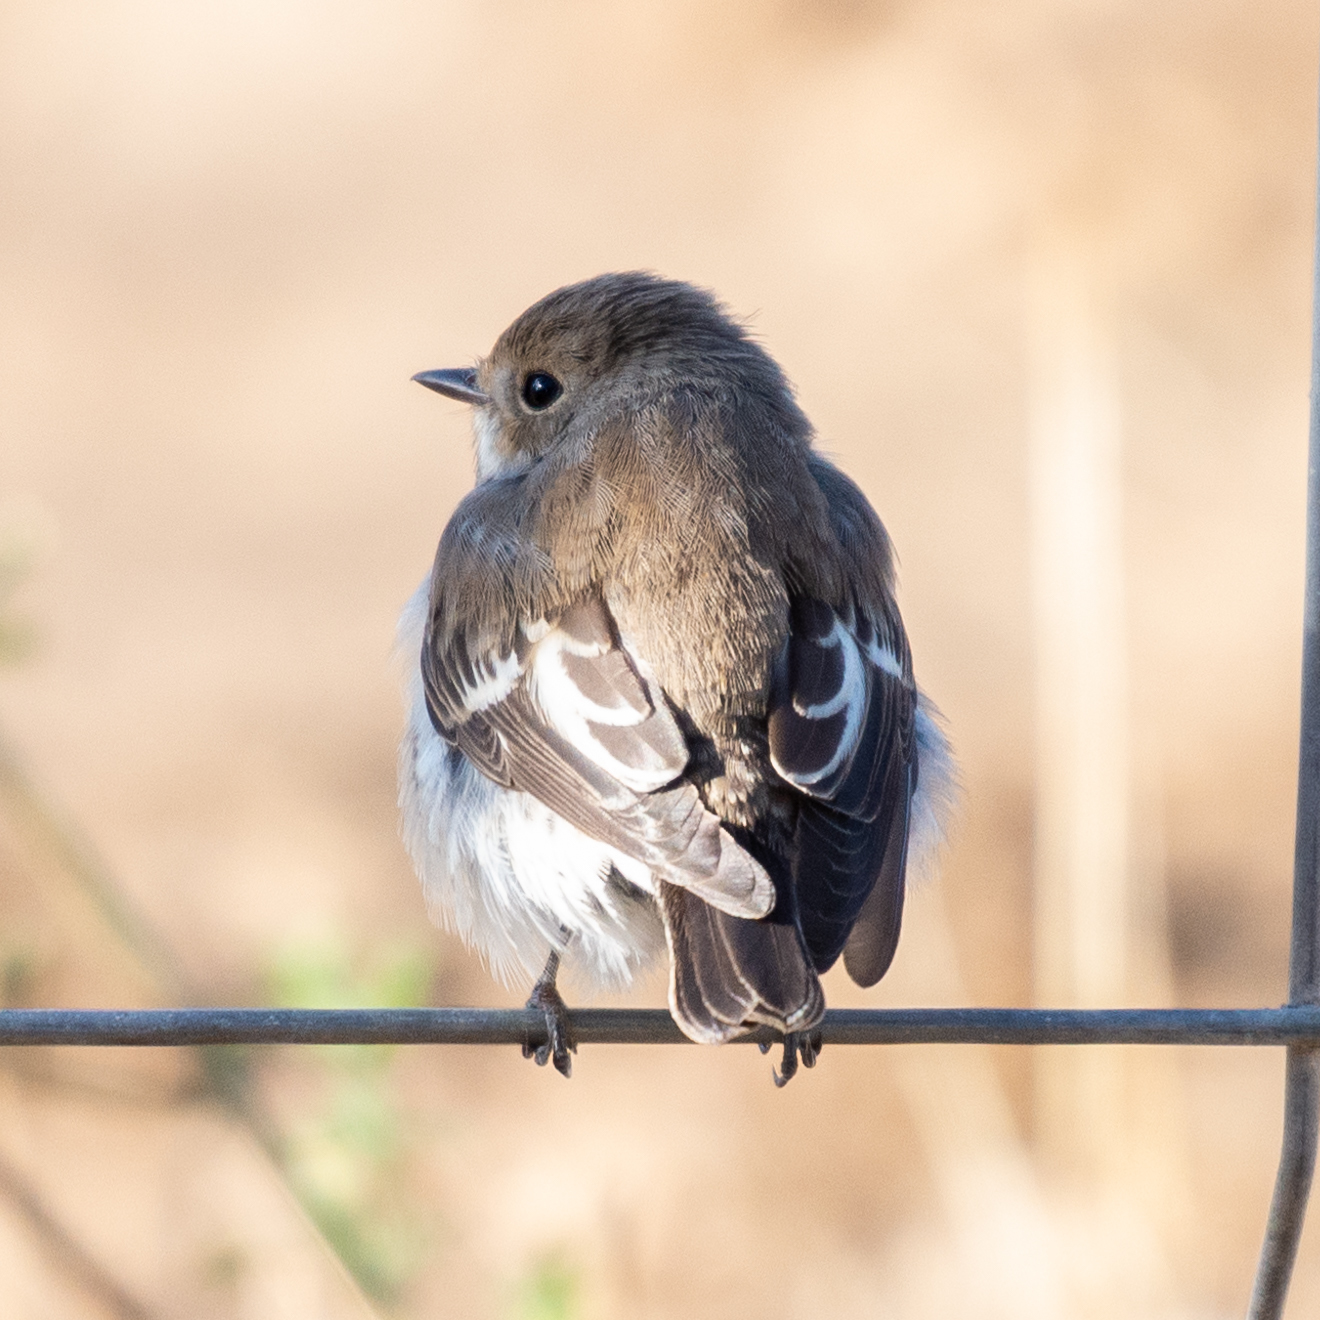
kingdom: Animalia
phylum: Chordata
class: Aves
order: Passeriformes
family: Muscicapidae
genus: Ficedula
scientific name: Ficedula hypoleuca
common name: European pied flycatcher
